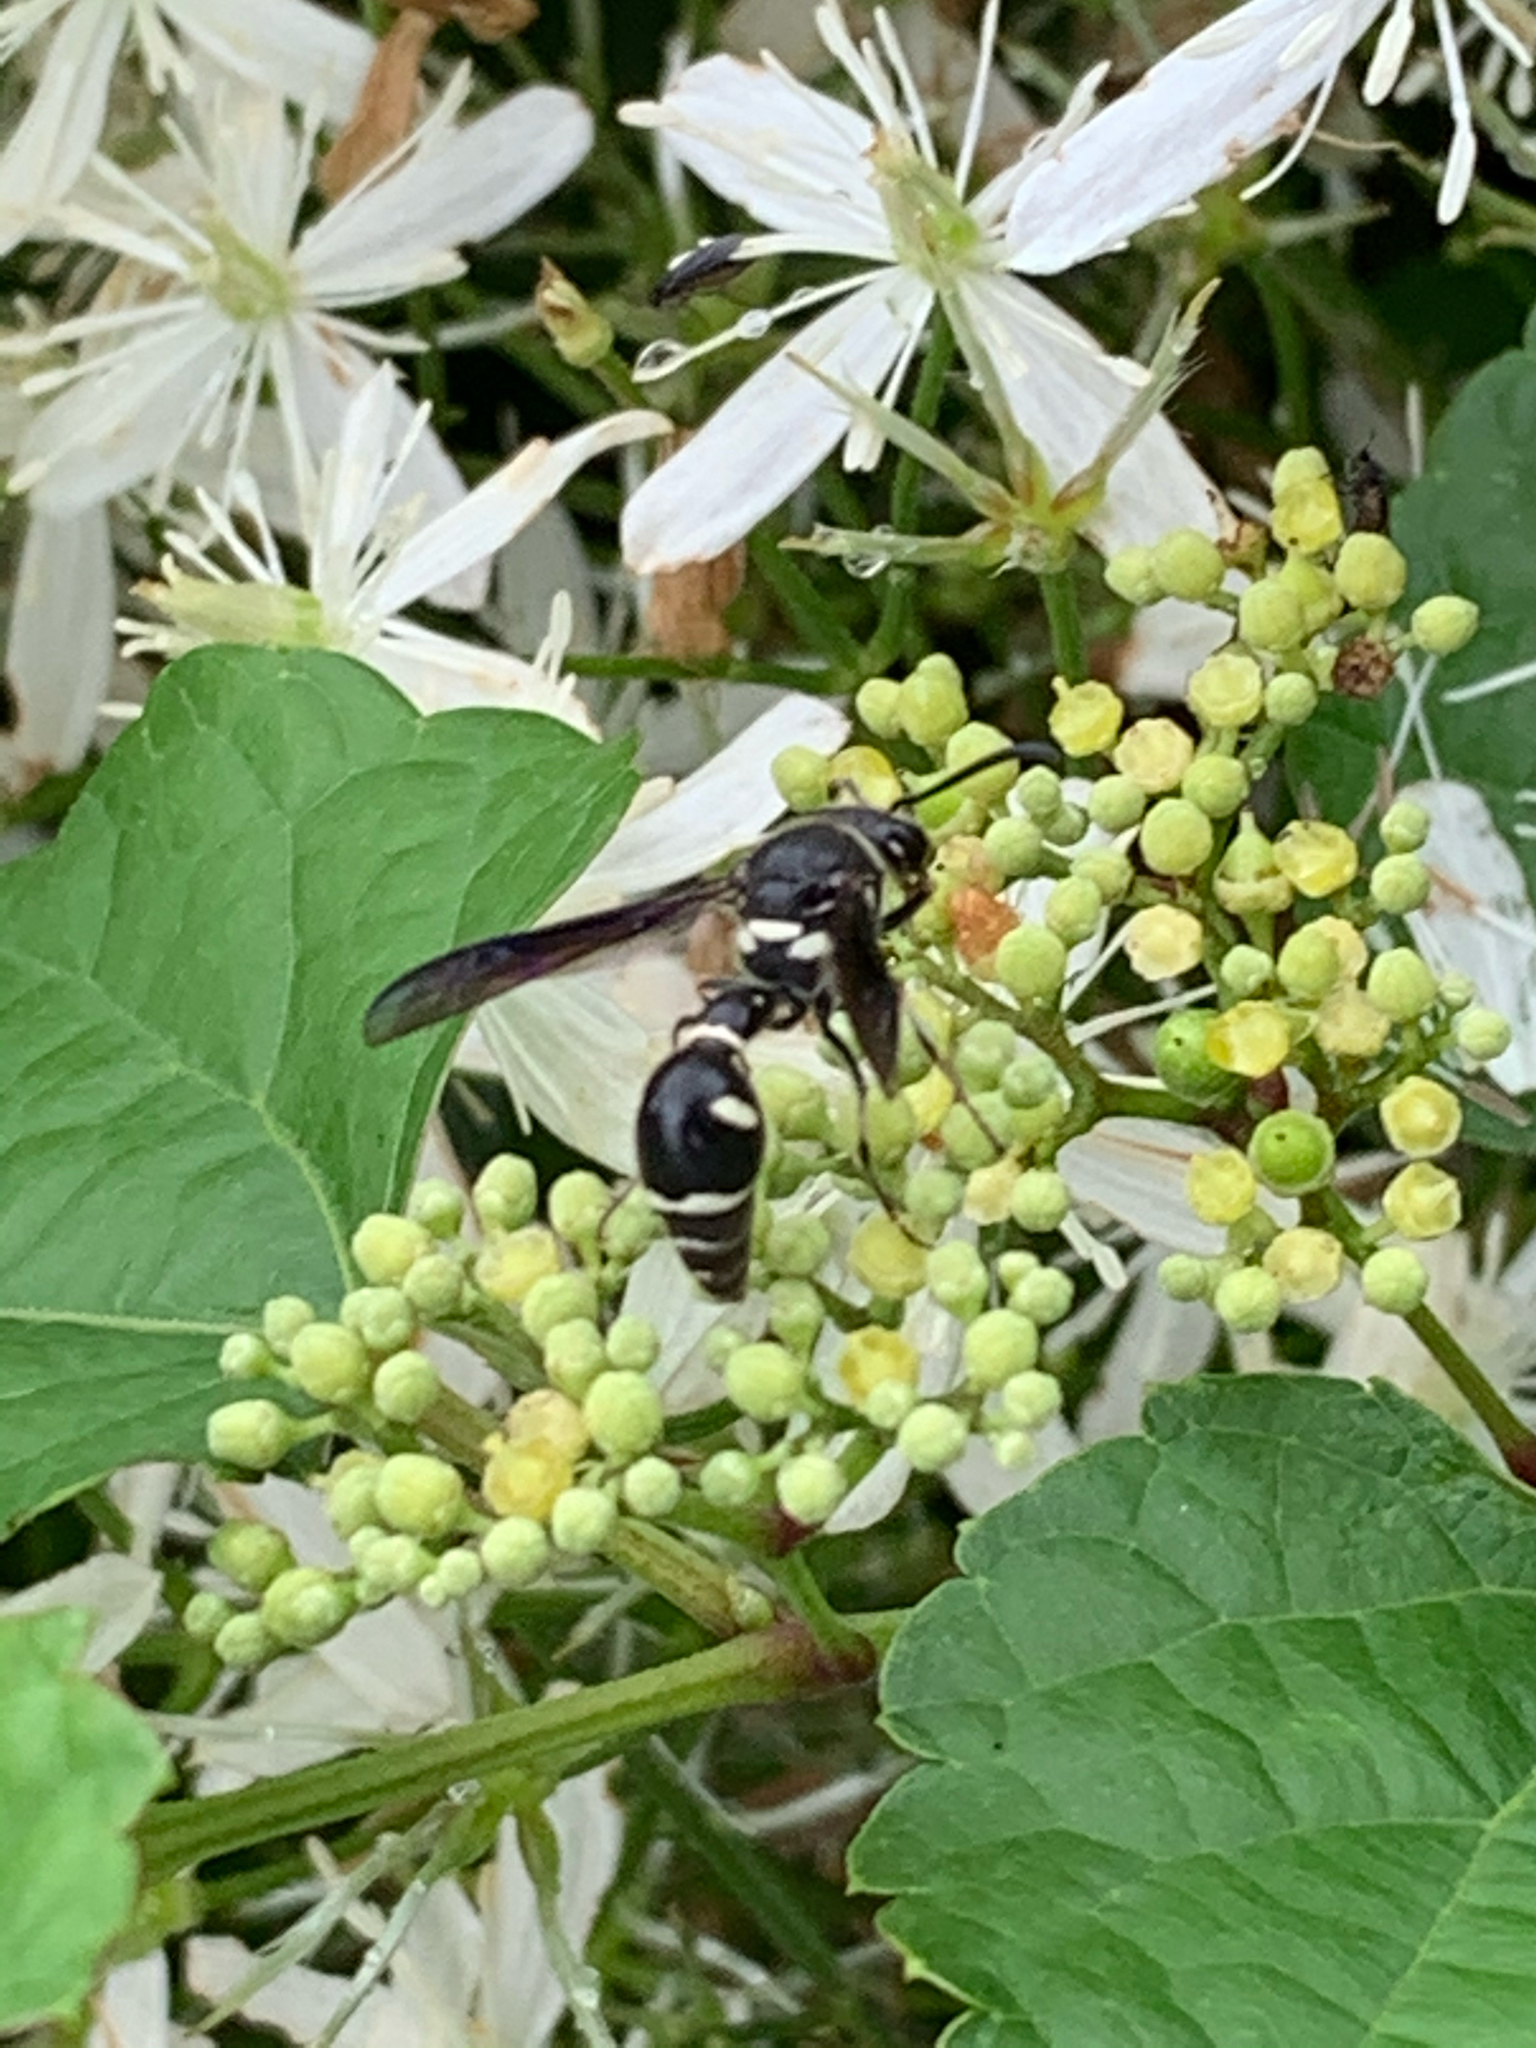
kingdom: Animalia
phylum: Arthropoda
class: Insecta
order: Hymenoptera
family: Vespidae
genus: Eumenes
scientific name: Eumenes fraternus
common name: Fraternal potter wasp
